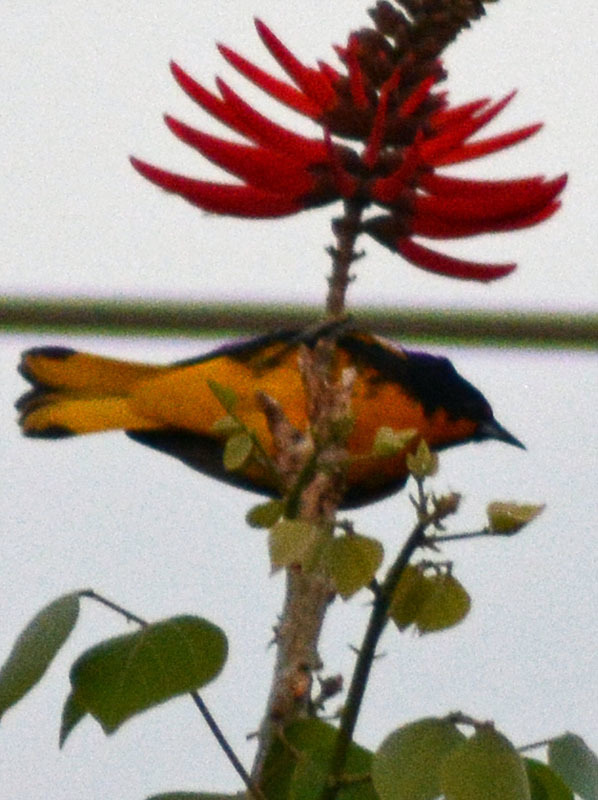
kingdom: Animalia
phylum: Chordata
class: Aves
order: Passeriformes
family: Icteridae
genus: Icterus
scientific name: Icterus abeillei
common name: Black-backed oriole
